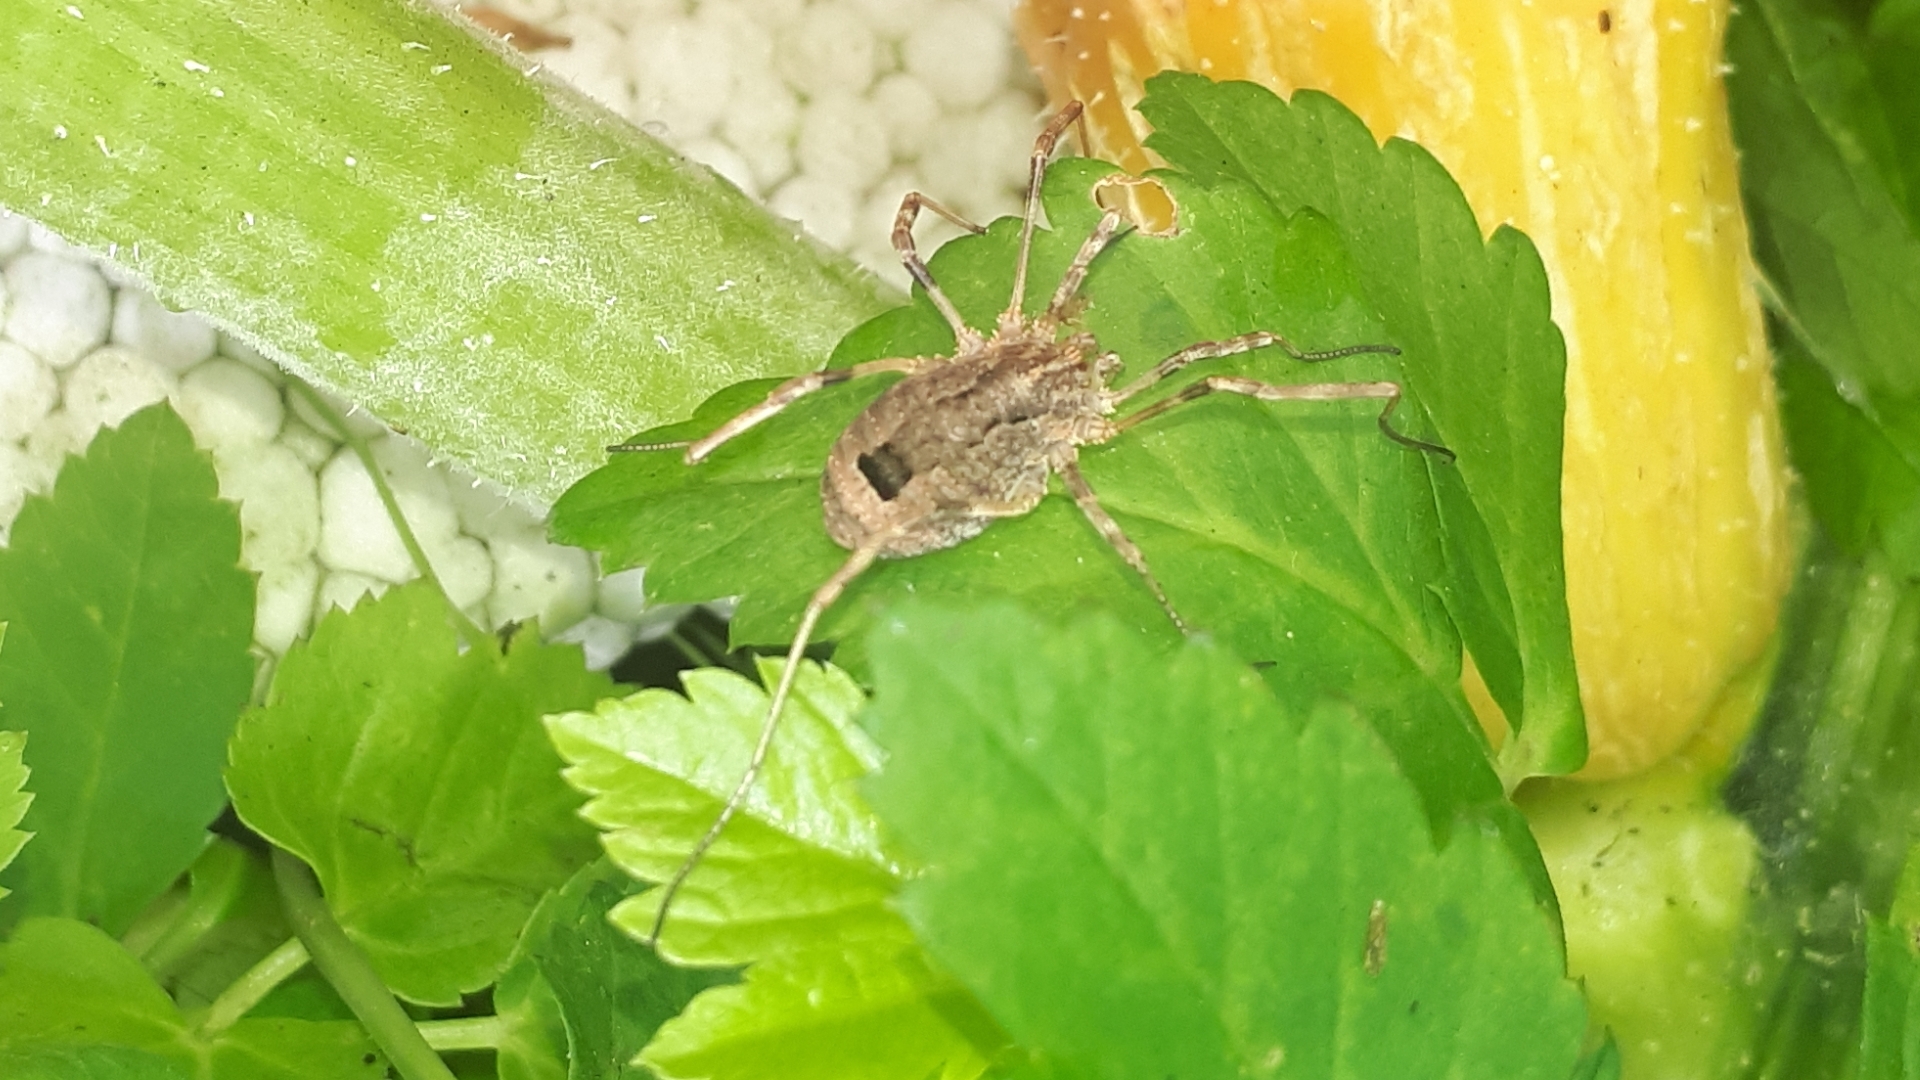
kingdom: Animalia
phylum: Arthropoda
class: Arachnida
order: Opiliones
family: Phalangiidae
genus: Odiellus
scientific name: Odiellus spinosus
